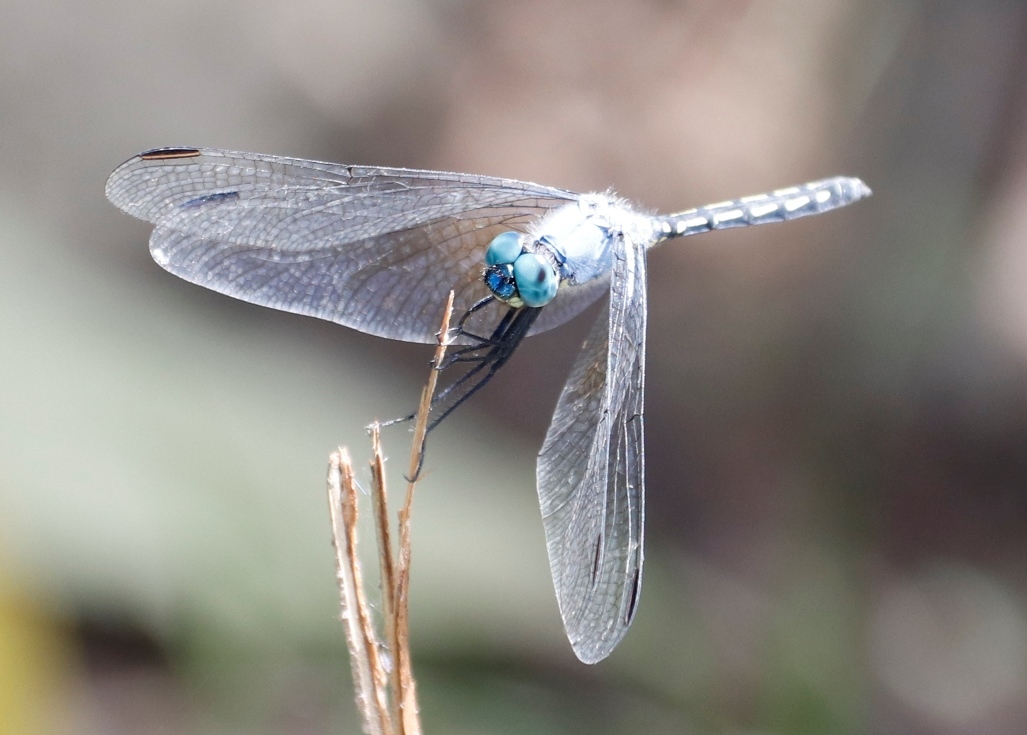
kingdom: Animalia
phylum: Arthropoda
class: Insecta
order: Odonata
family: Libellulidae
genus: Trithemis
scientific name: Trithemis stictica
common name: Jaunty dropwing
